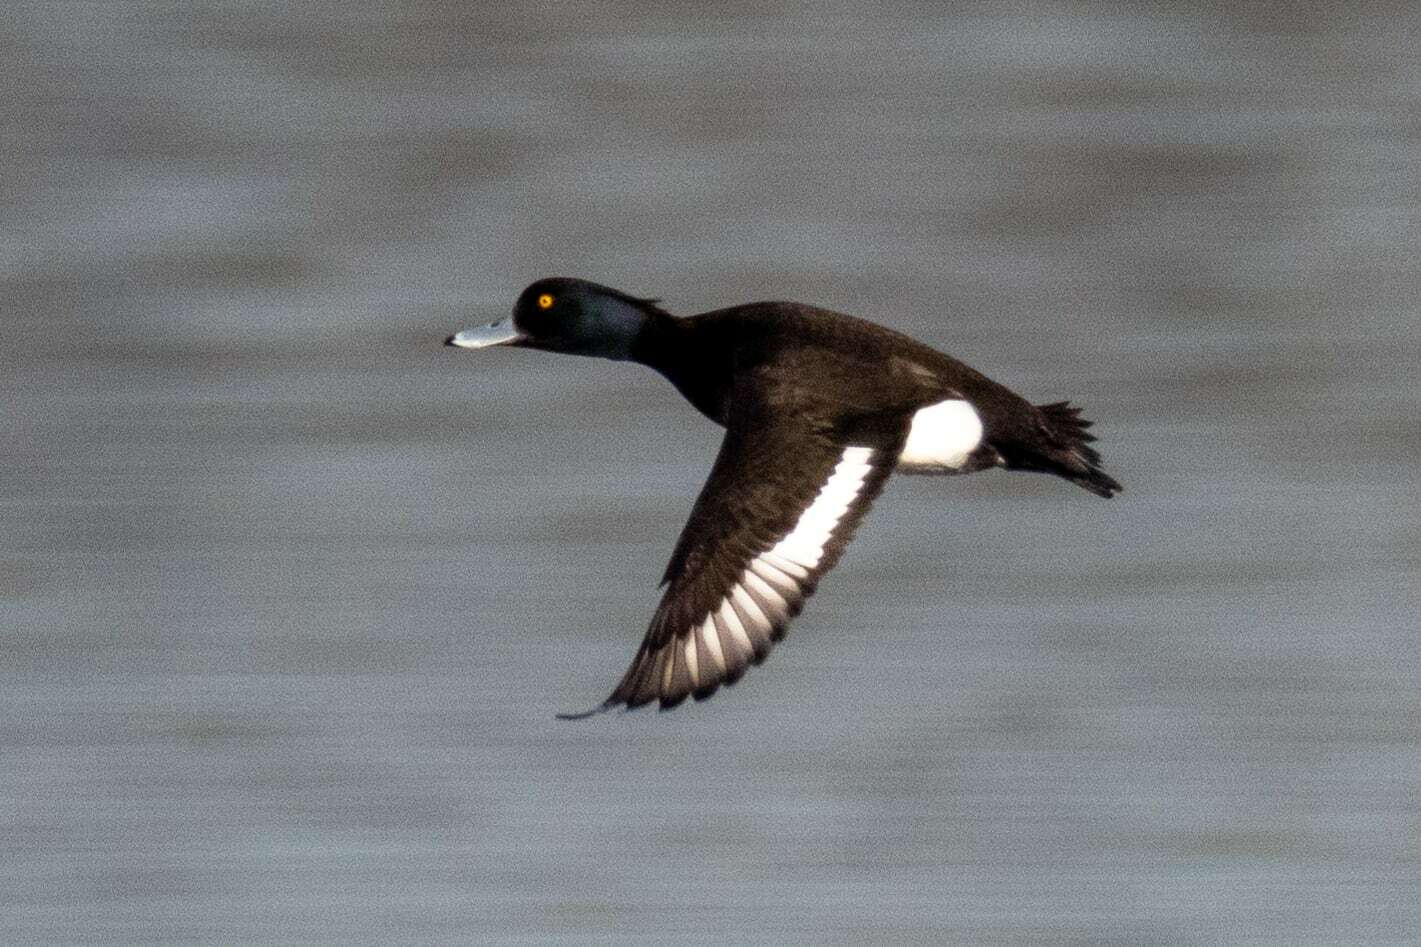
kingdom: Animalia
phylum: Chordata
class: Aves
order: Anseriformes
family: Anatidae
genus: Aythya
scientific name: Aythya fuligula
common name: Tufted duck
